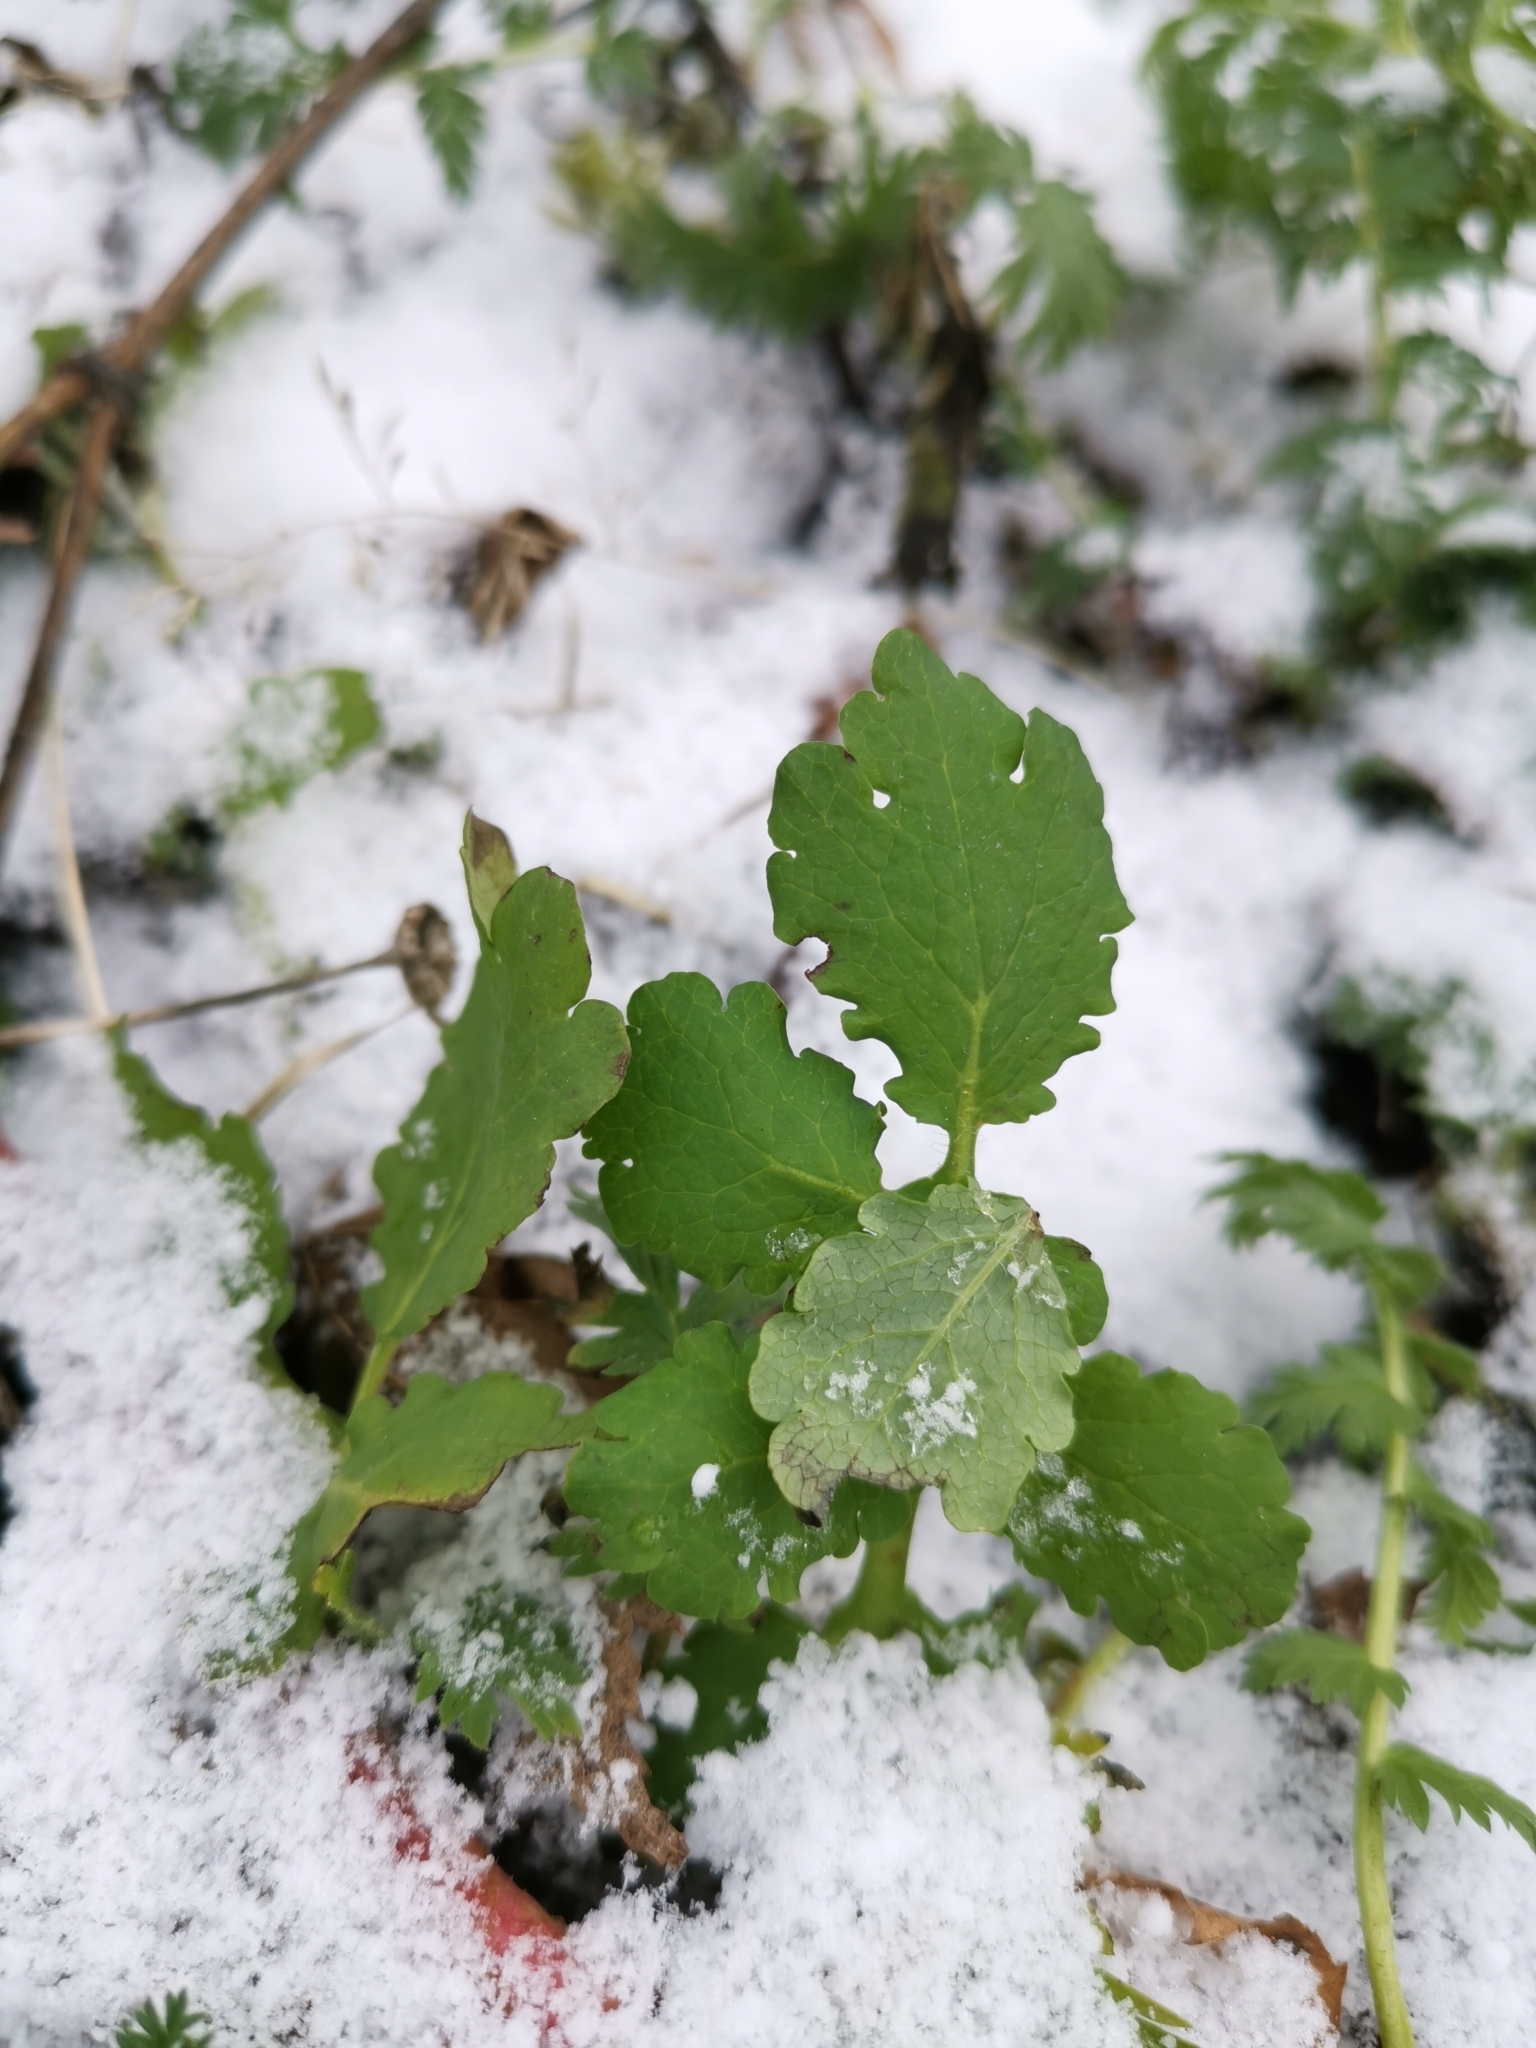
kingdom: Plantae
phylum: Tracheophyta
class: Magnoliopsida
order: Ranunculales
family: Papaveraceae
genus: Chelidonium
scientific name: Chelidonium majus
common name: Greater celandine
